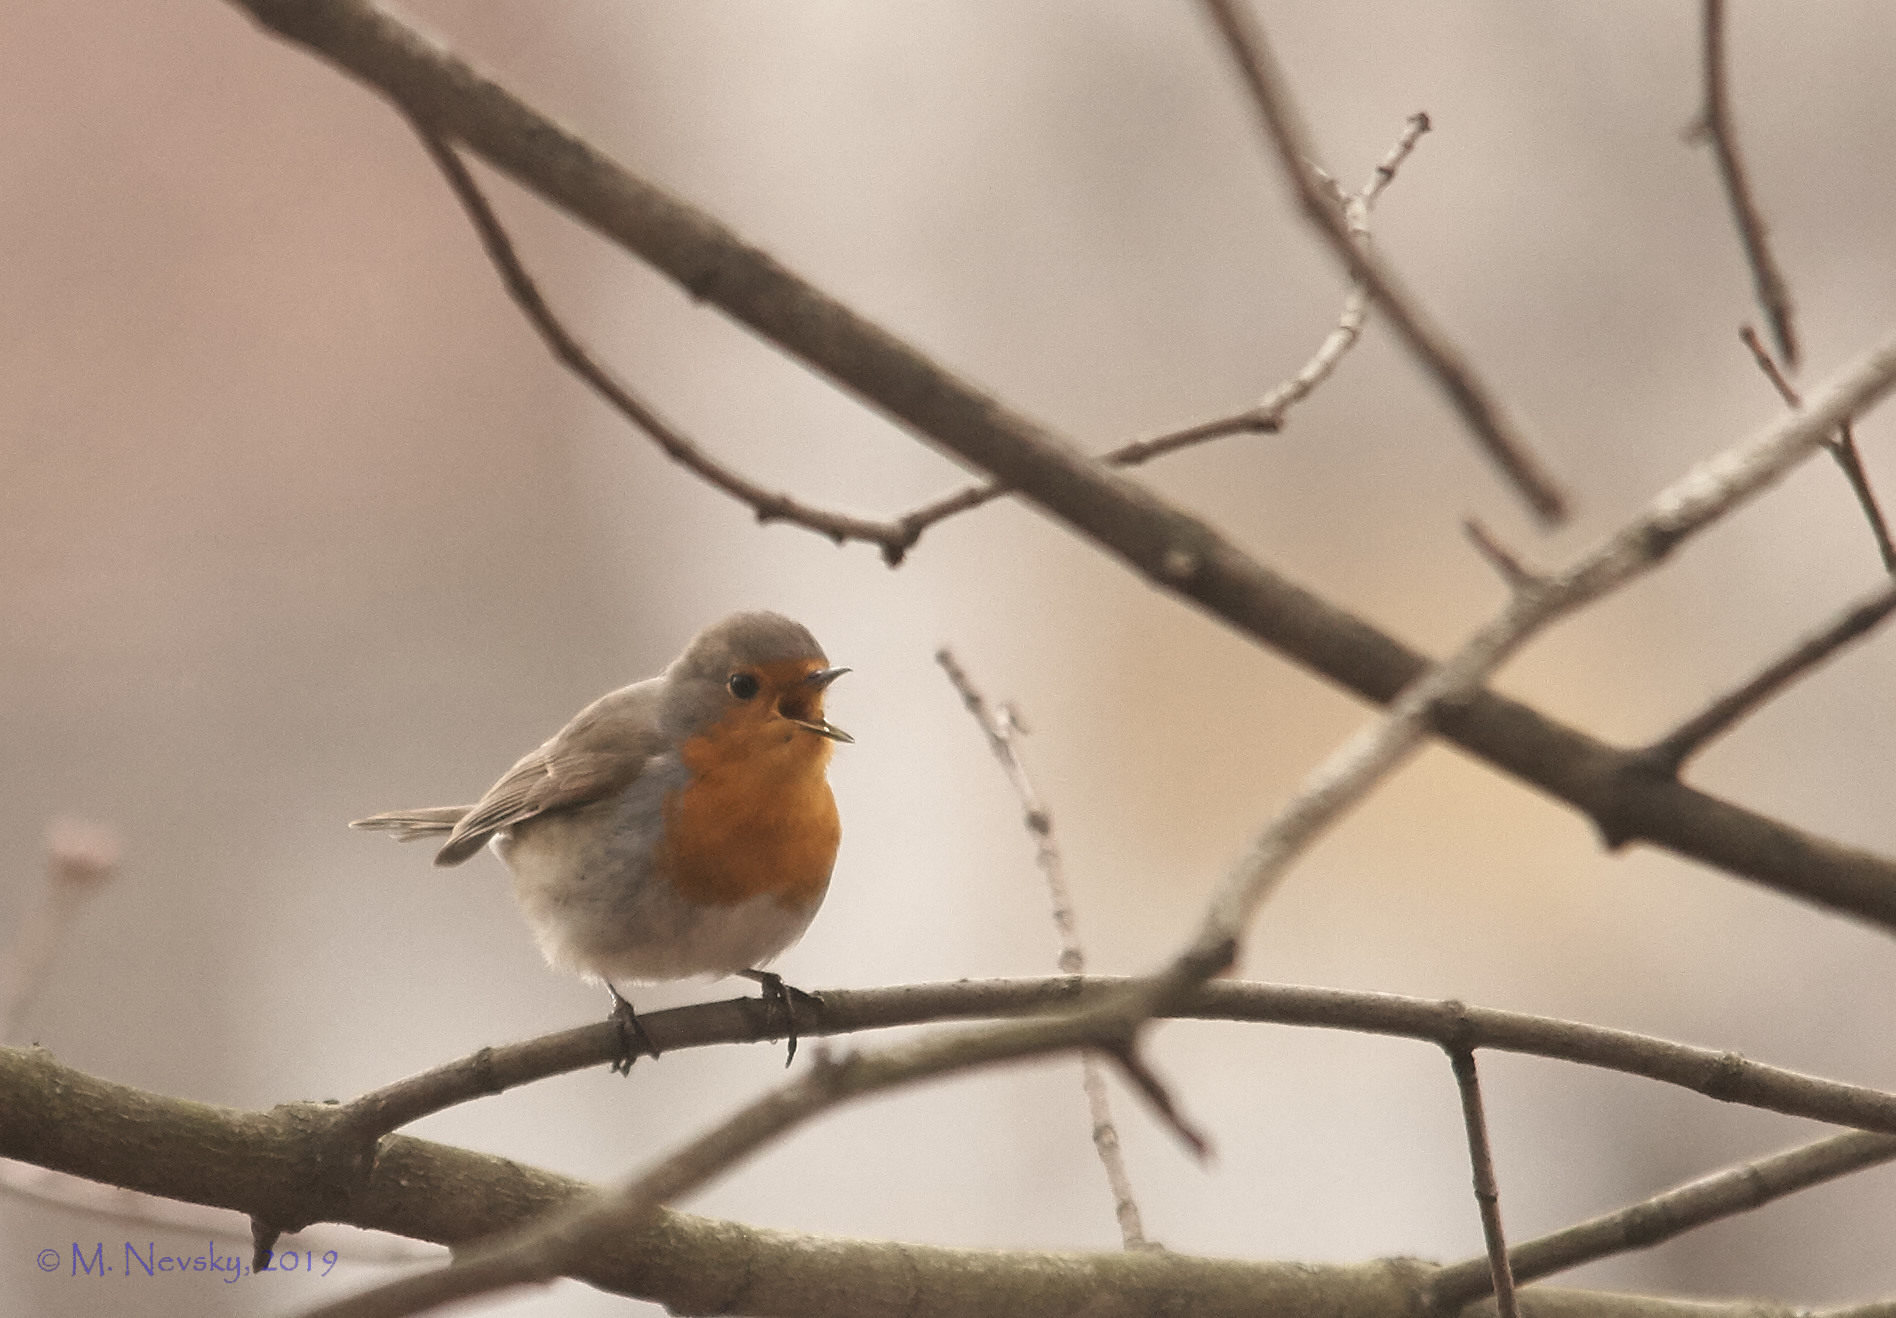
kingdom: Animalia
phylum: Chordata
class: Aves
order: Passeriformes
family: Muscicapidae
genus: Erithacus
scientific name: Erithacus rubecula
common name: European robin
